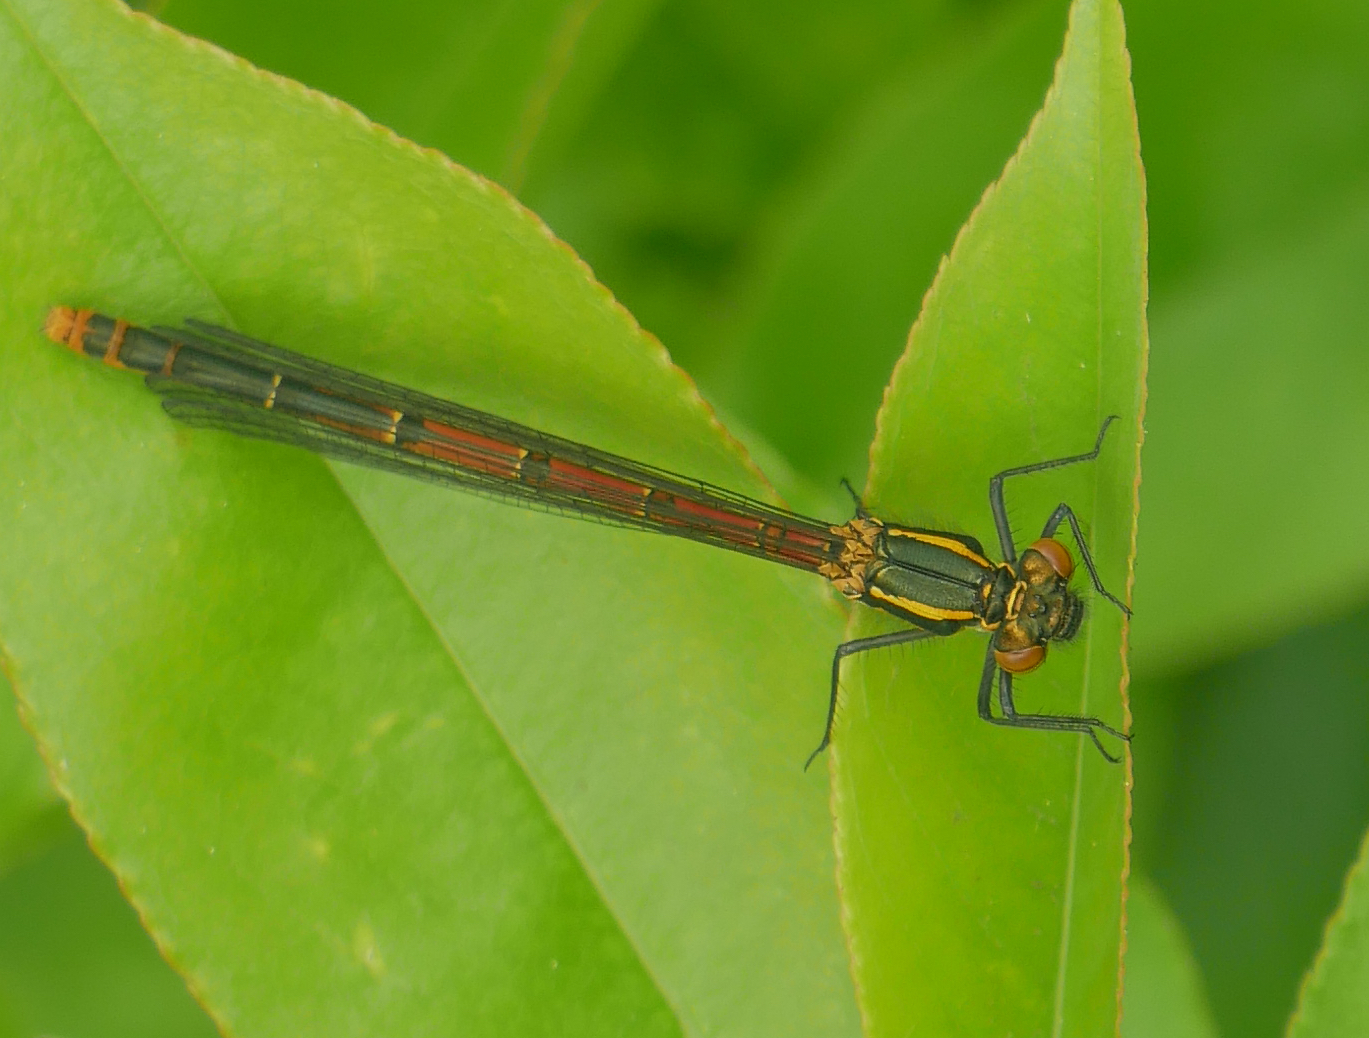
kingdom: Animalia
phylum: Arthropoda
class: Insecta
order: Odonata
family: Coenagrionidae
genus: Pyrrhosoma
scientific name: Pyrrhosoma nymphula
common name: Large red damsel
